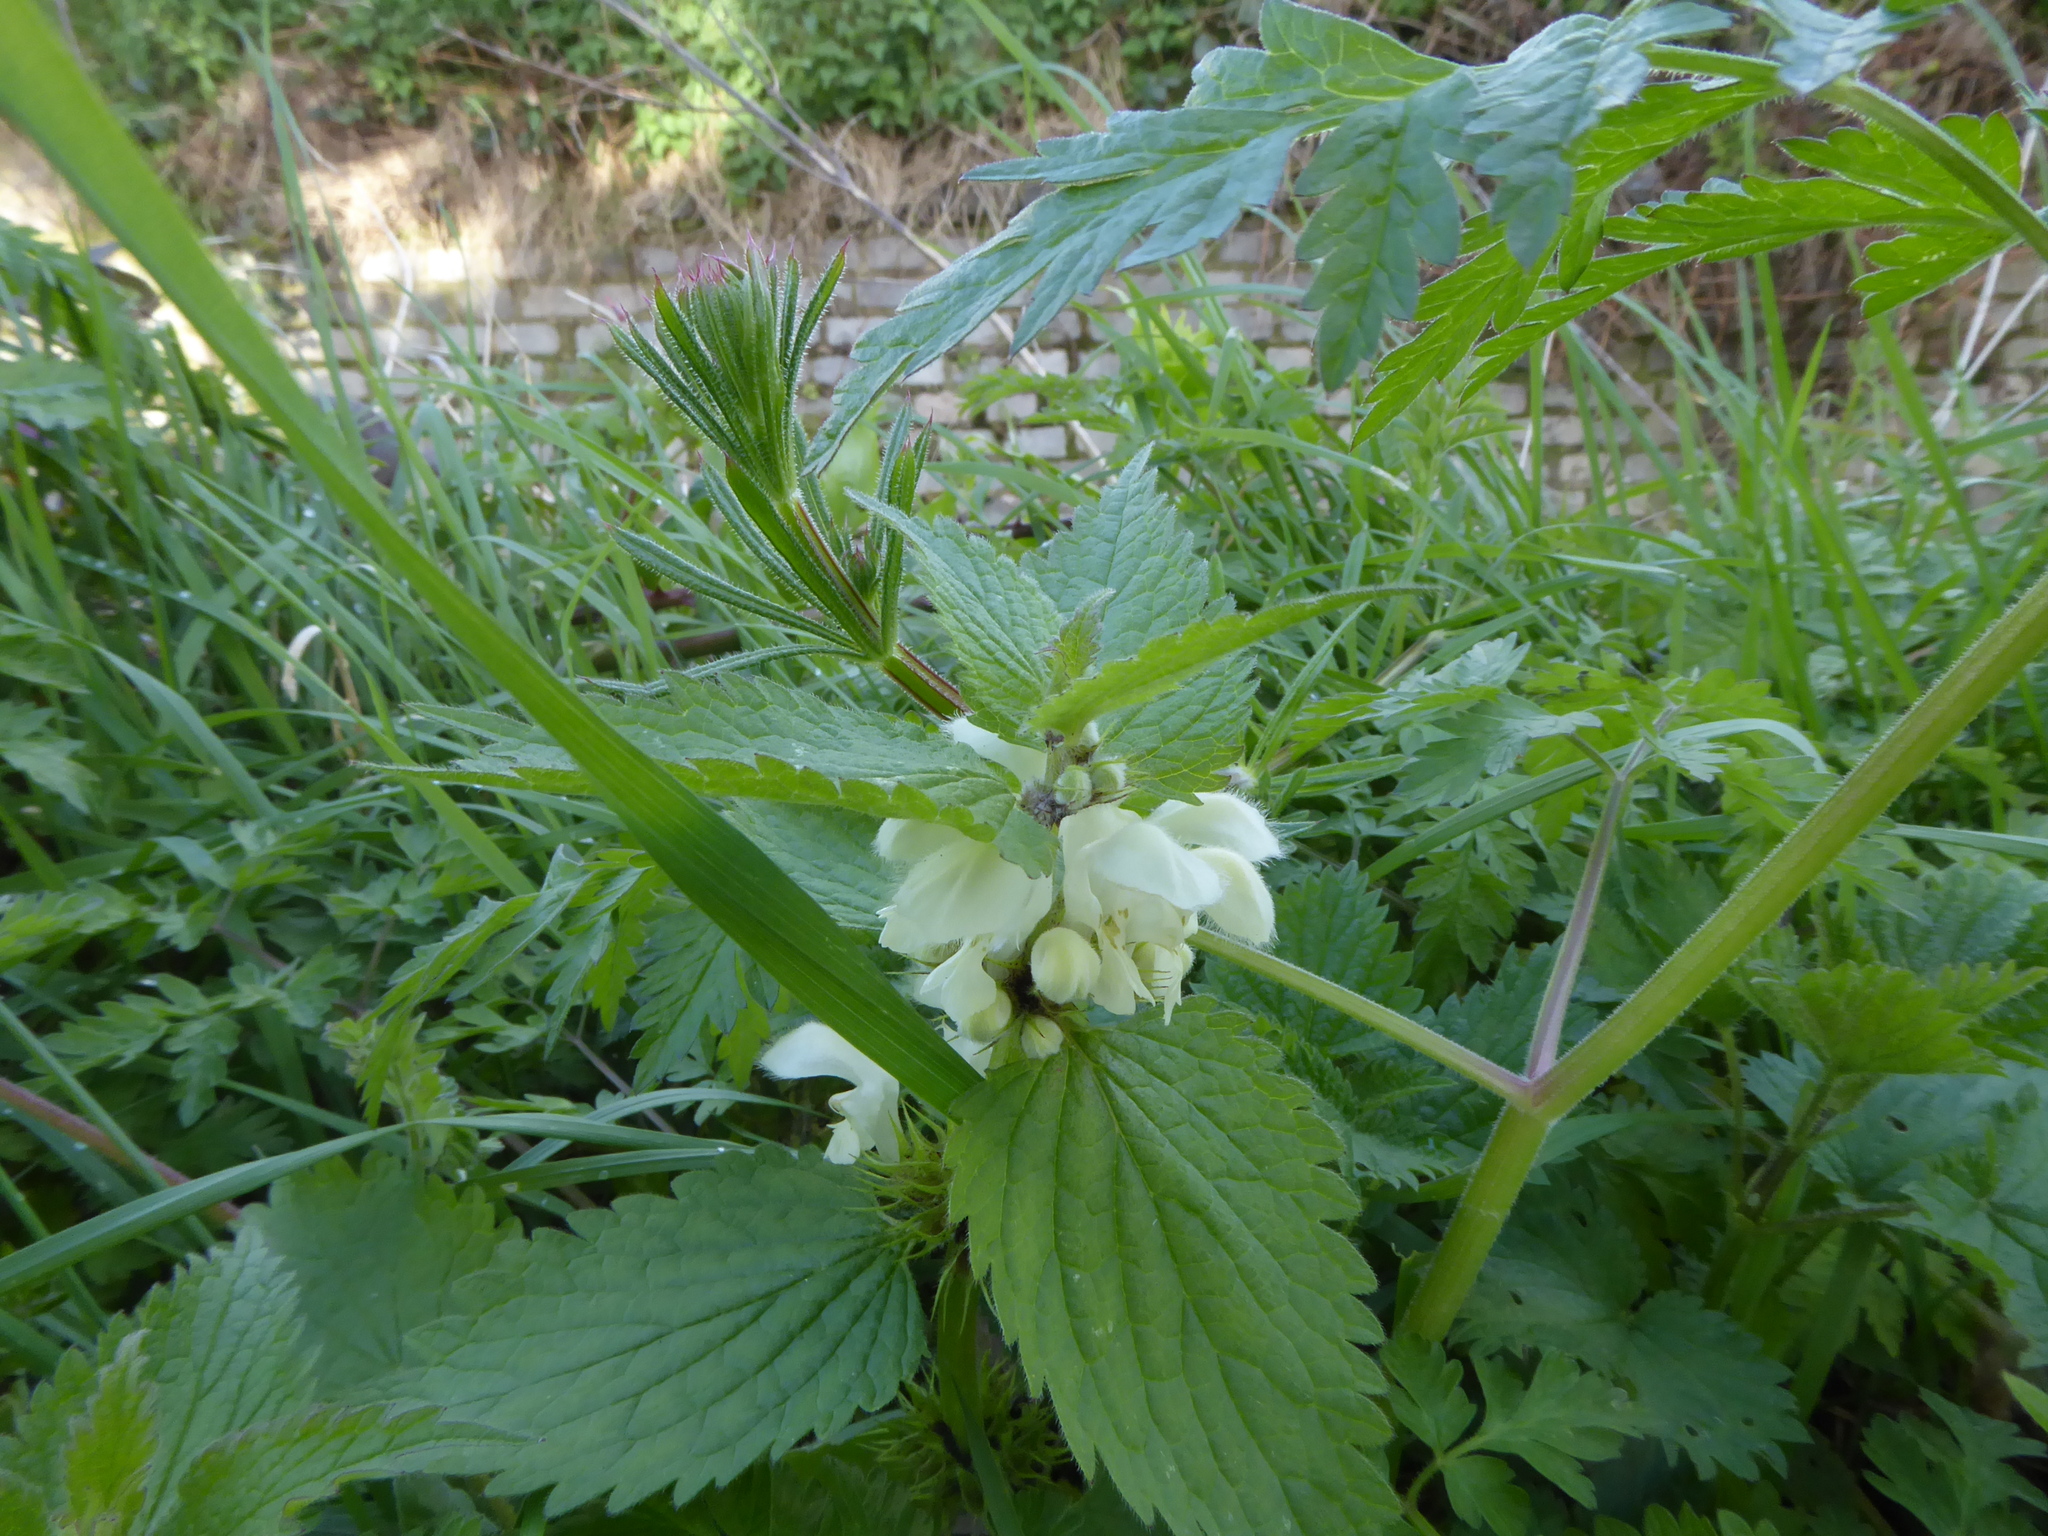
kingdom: Plantae
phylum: Tracheophyta
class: Magnoliopsida
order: Lamiales
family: Lamiaceae
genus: Lamium
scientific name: Lamium album
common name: White dead-nettle
